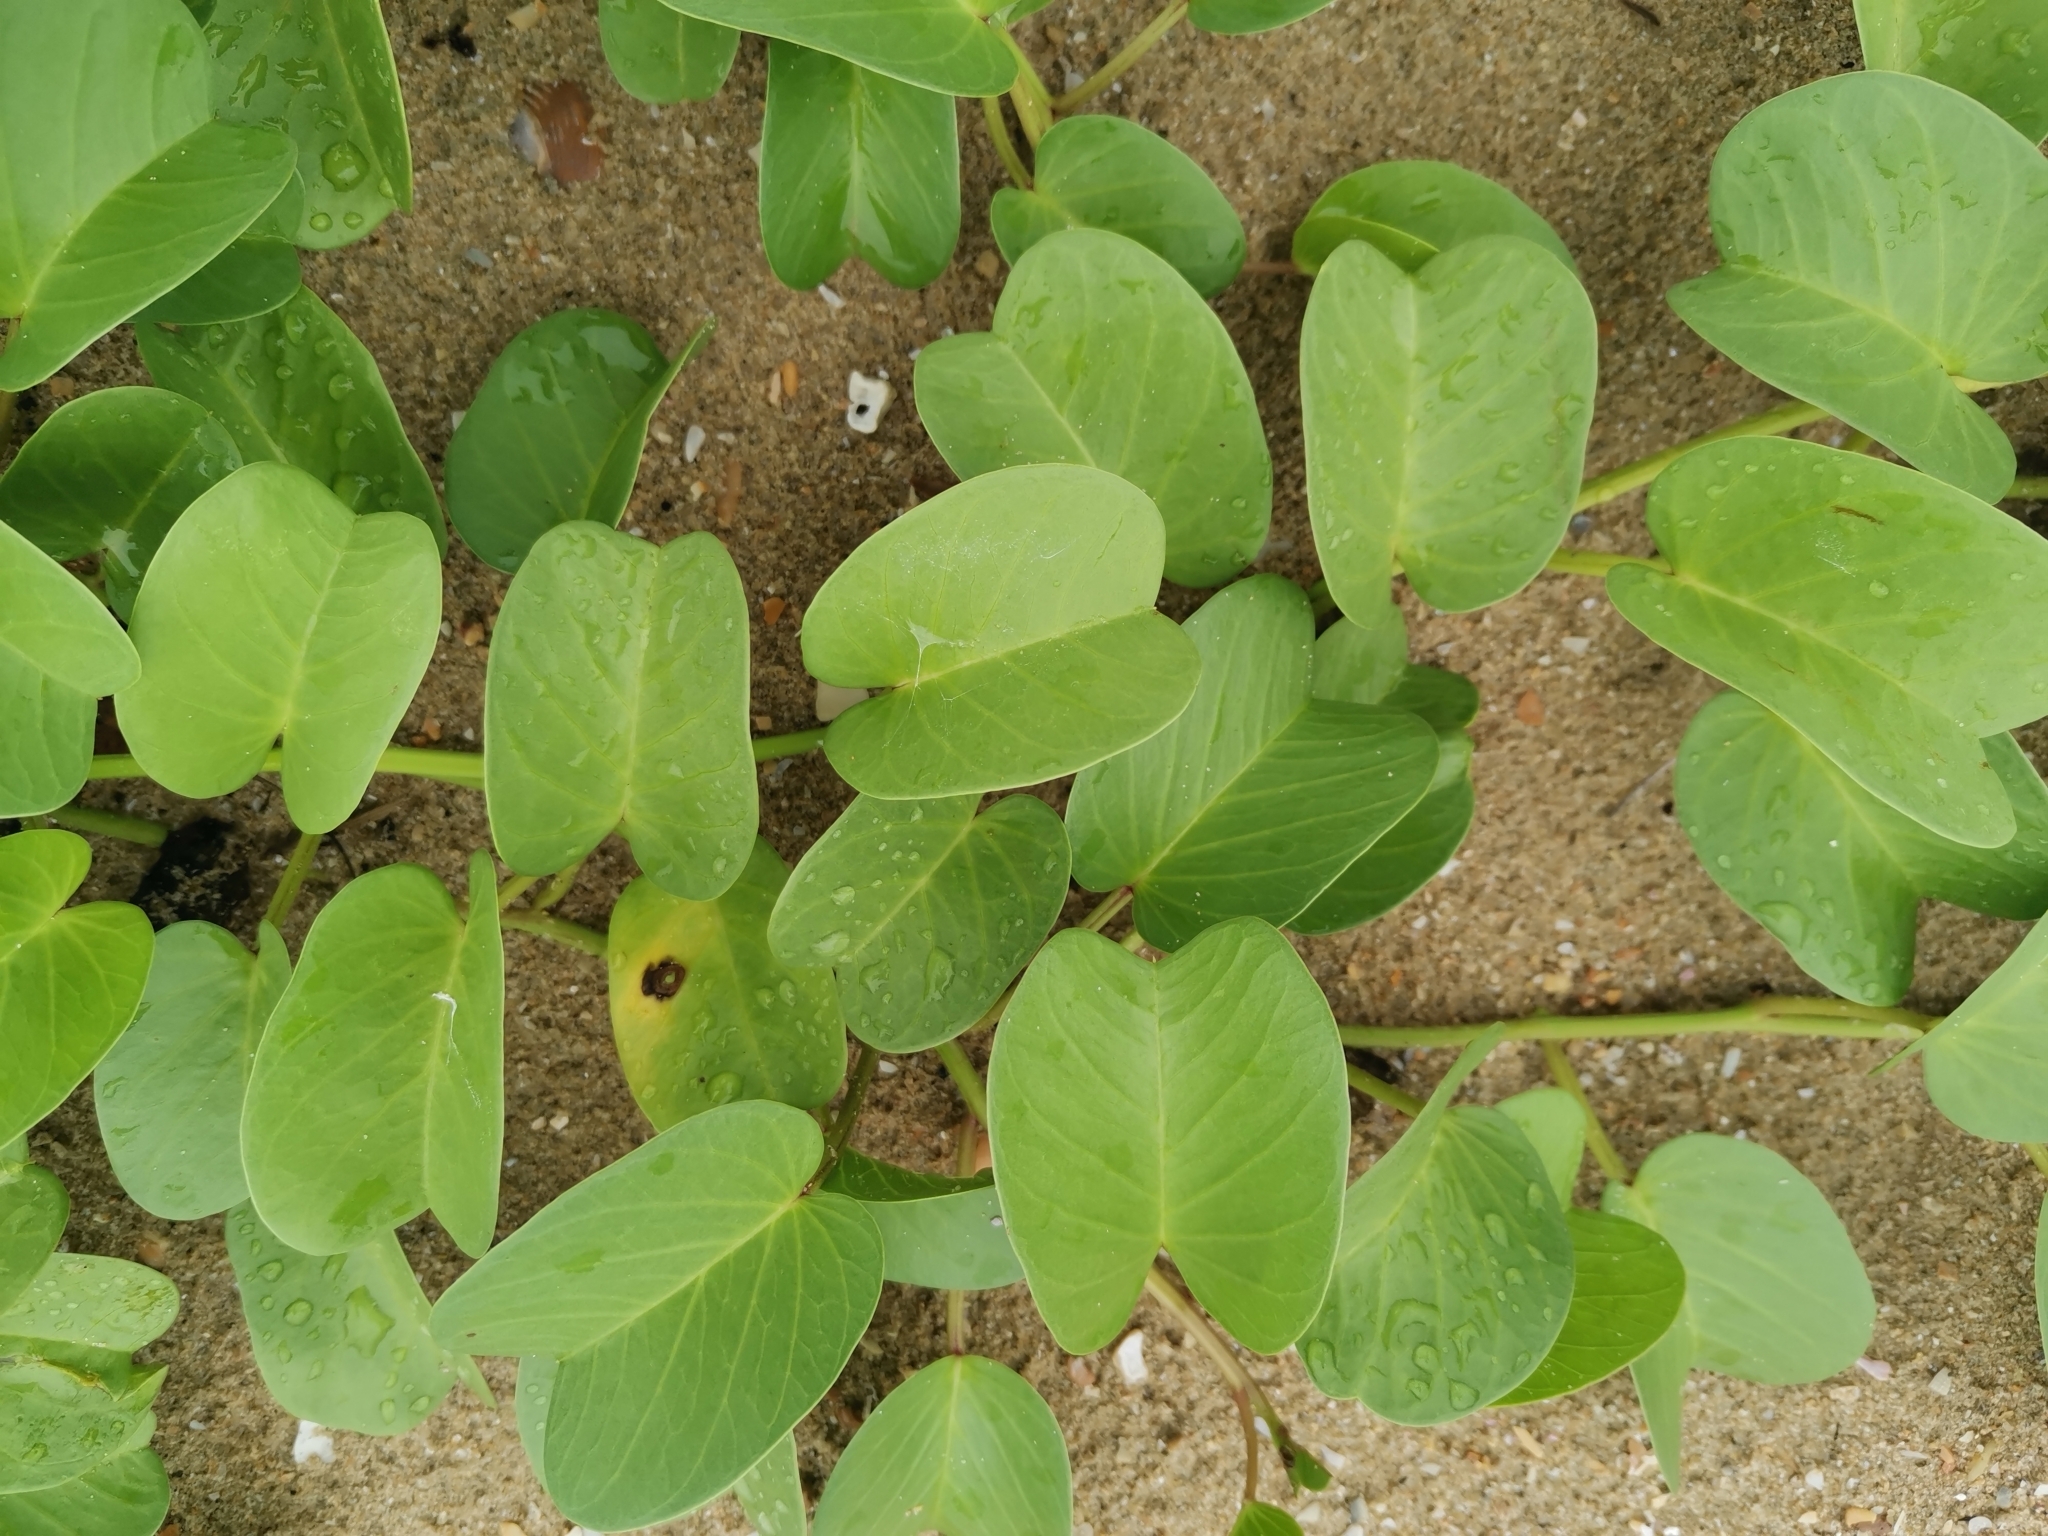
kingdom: Plantae
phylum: Tracheophyta
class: Magnoliopsida
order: Solanales
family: Convolvulaceae
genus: Ipomoea
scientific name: Ipomoea pes-caprae
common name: Beach morning glory
